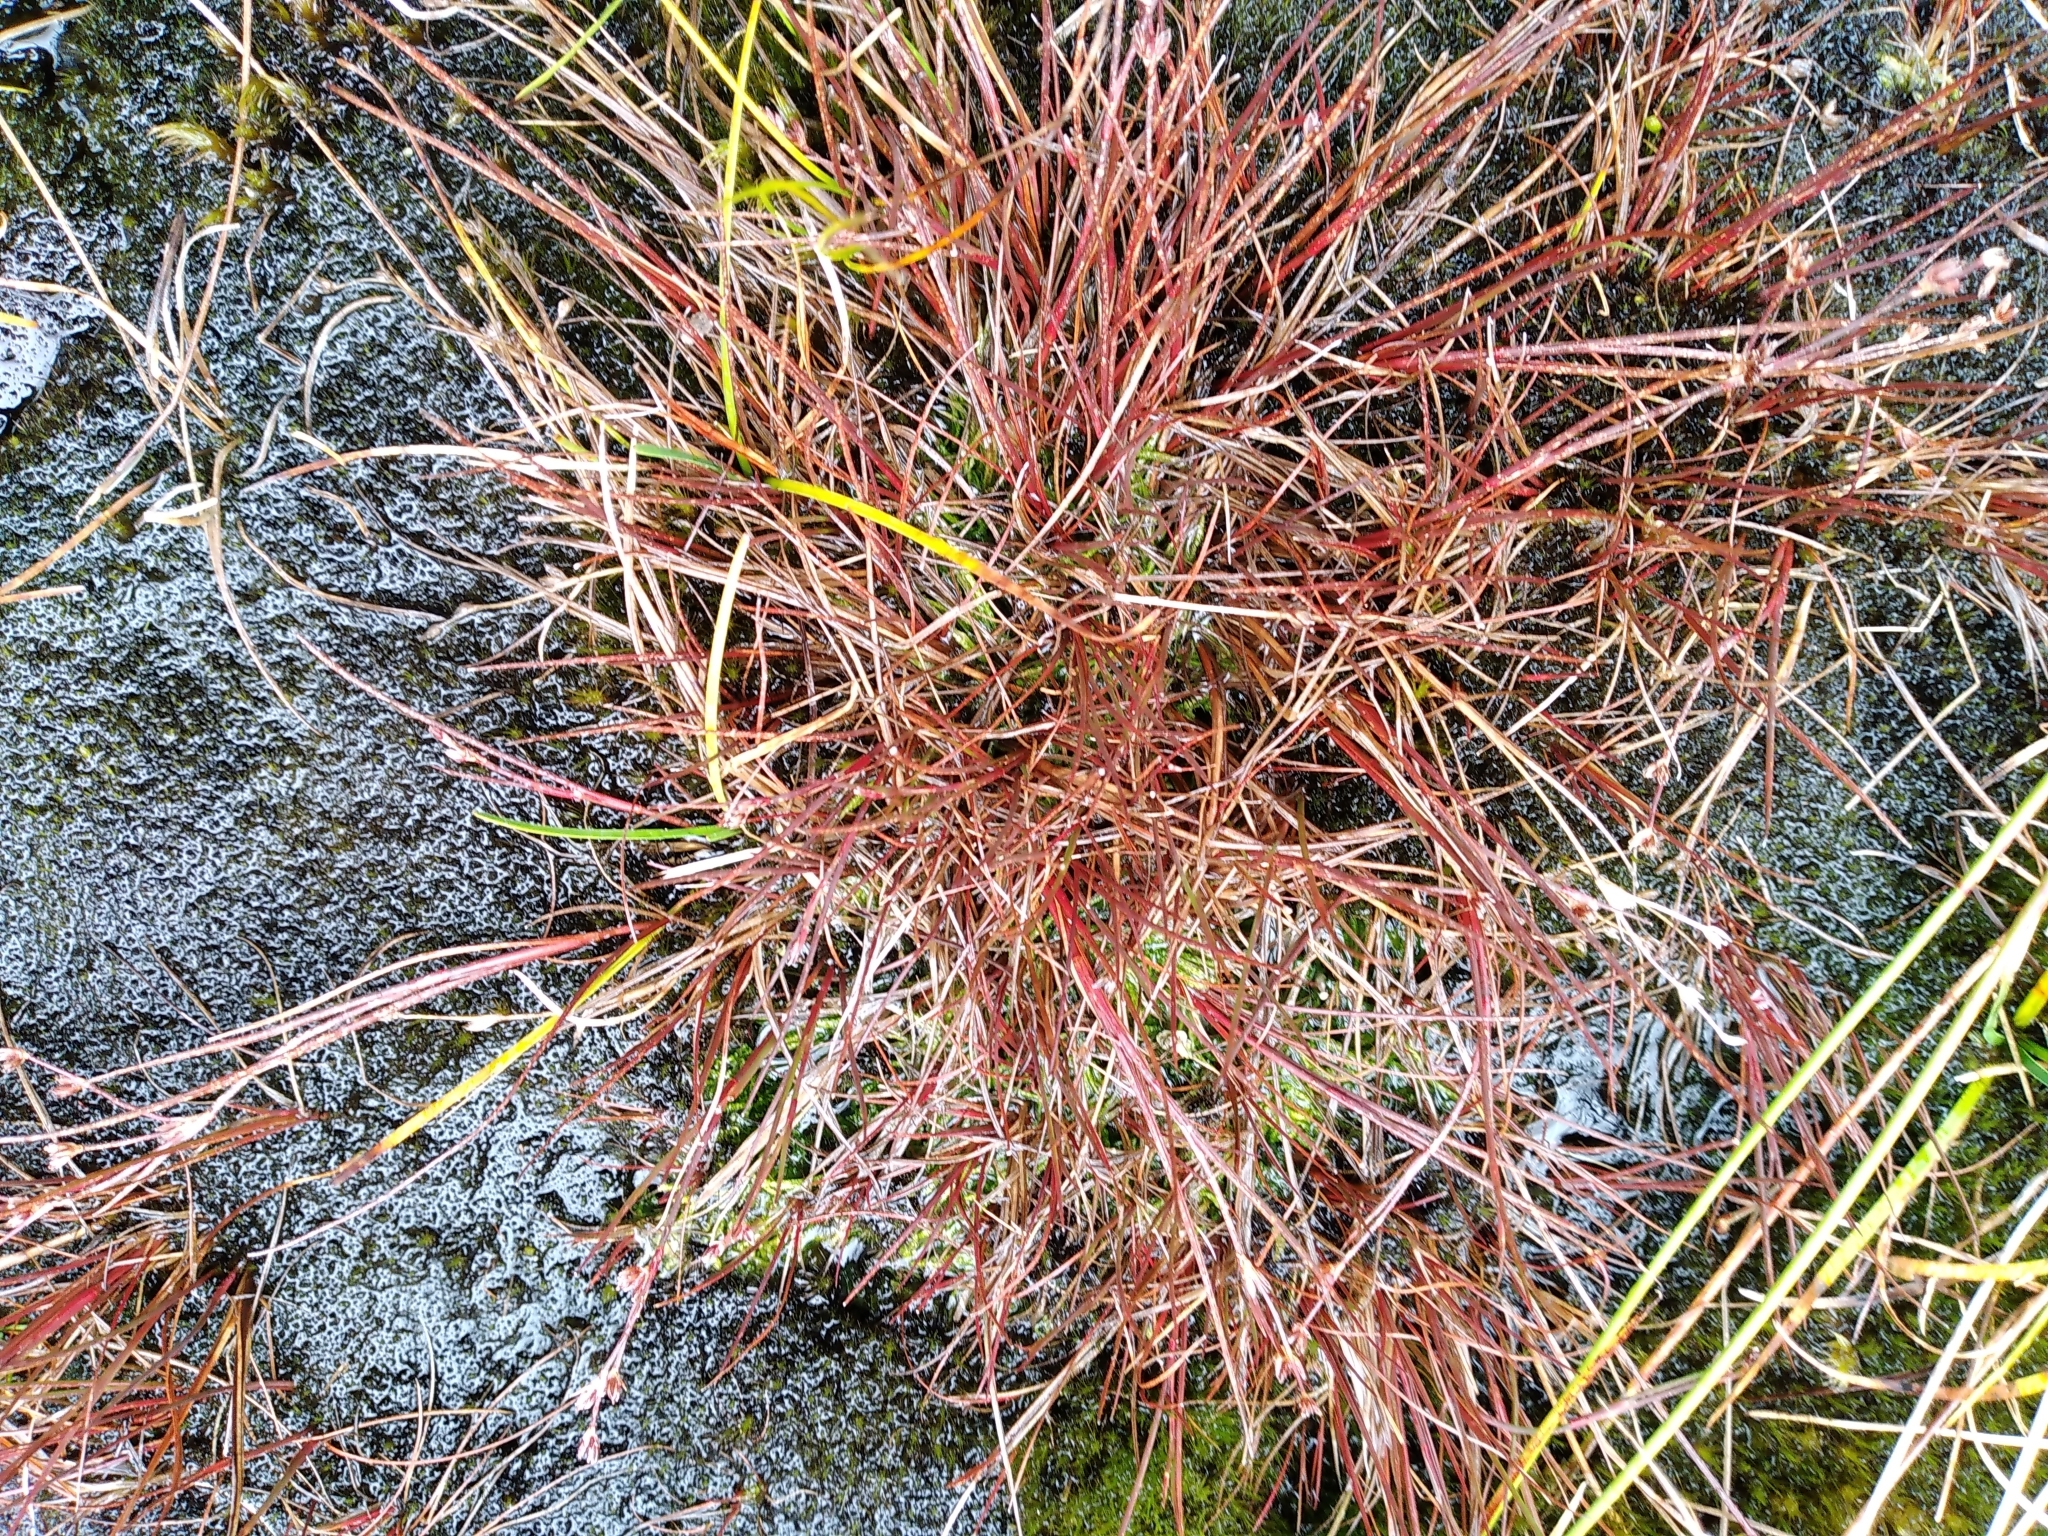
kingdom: Plantae
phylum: Tracheophyta
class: Liliopsida
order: Poales
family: Juncaceae
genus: Juncus
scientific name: Juncus bulbosus
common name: Bulbous rush
